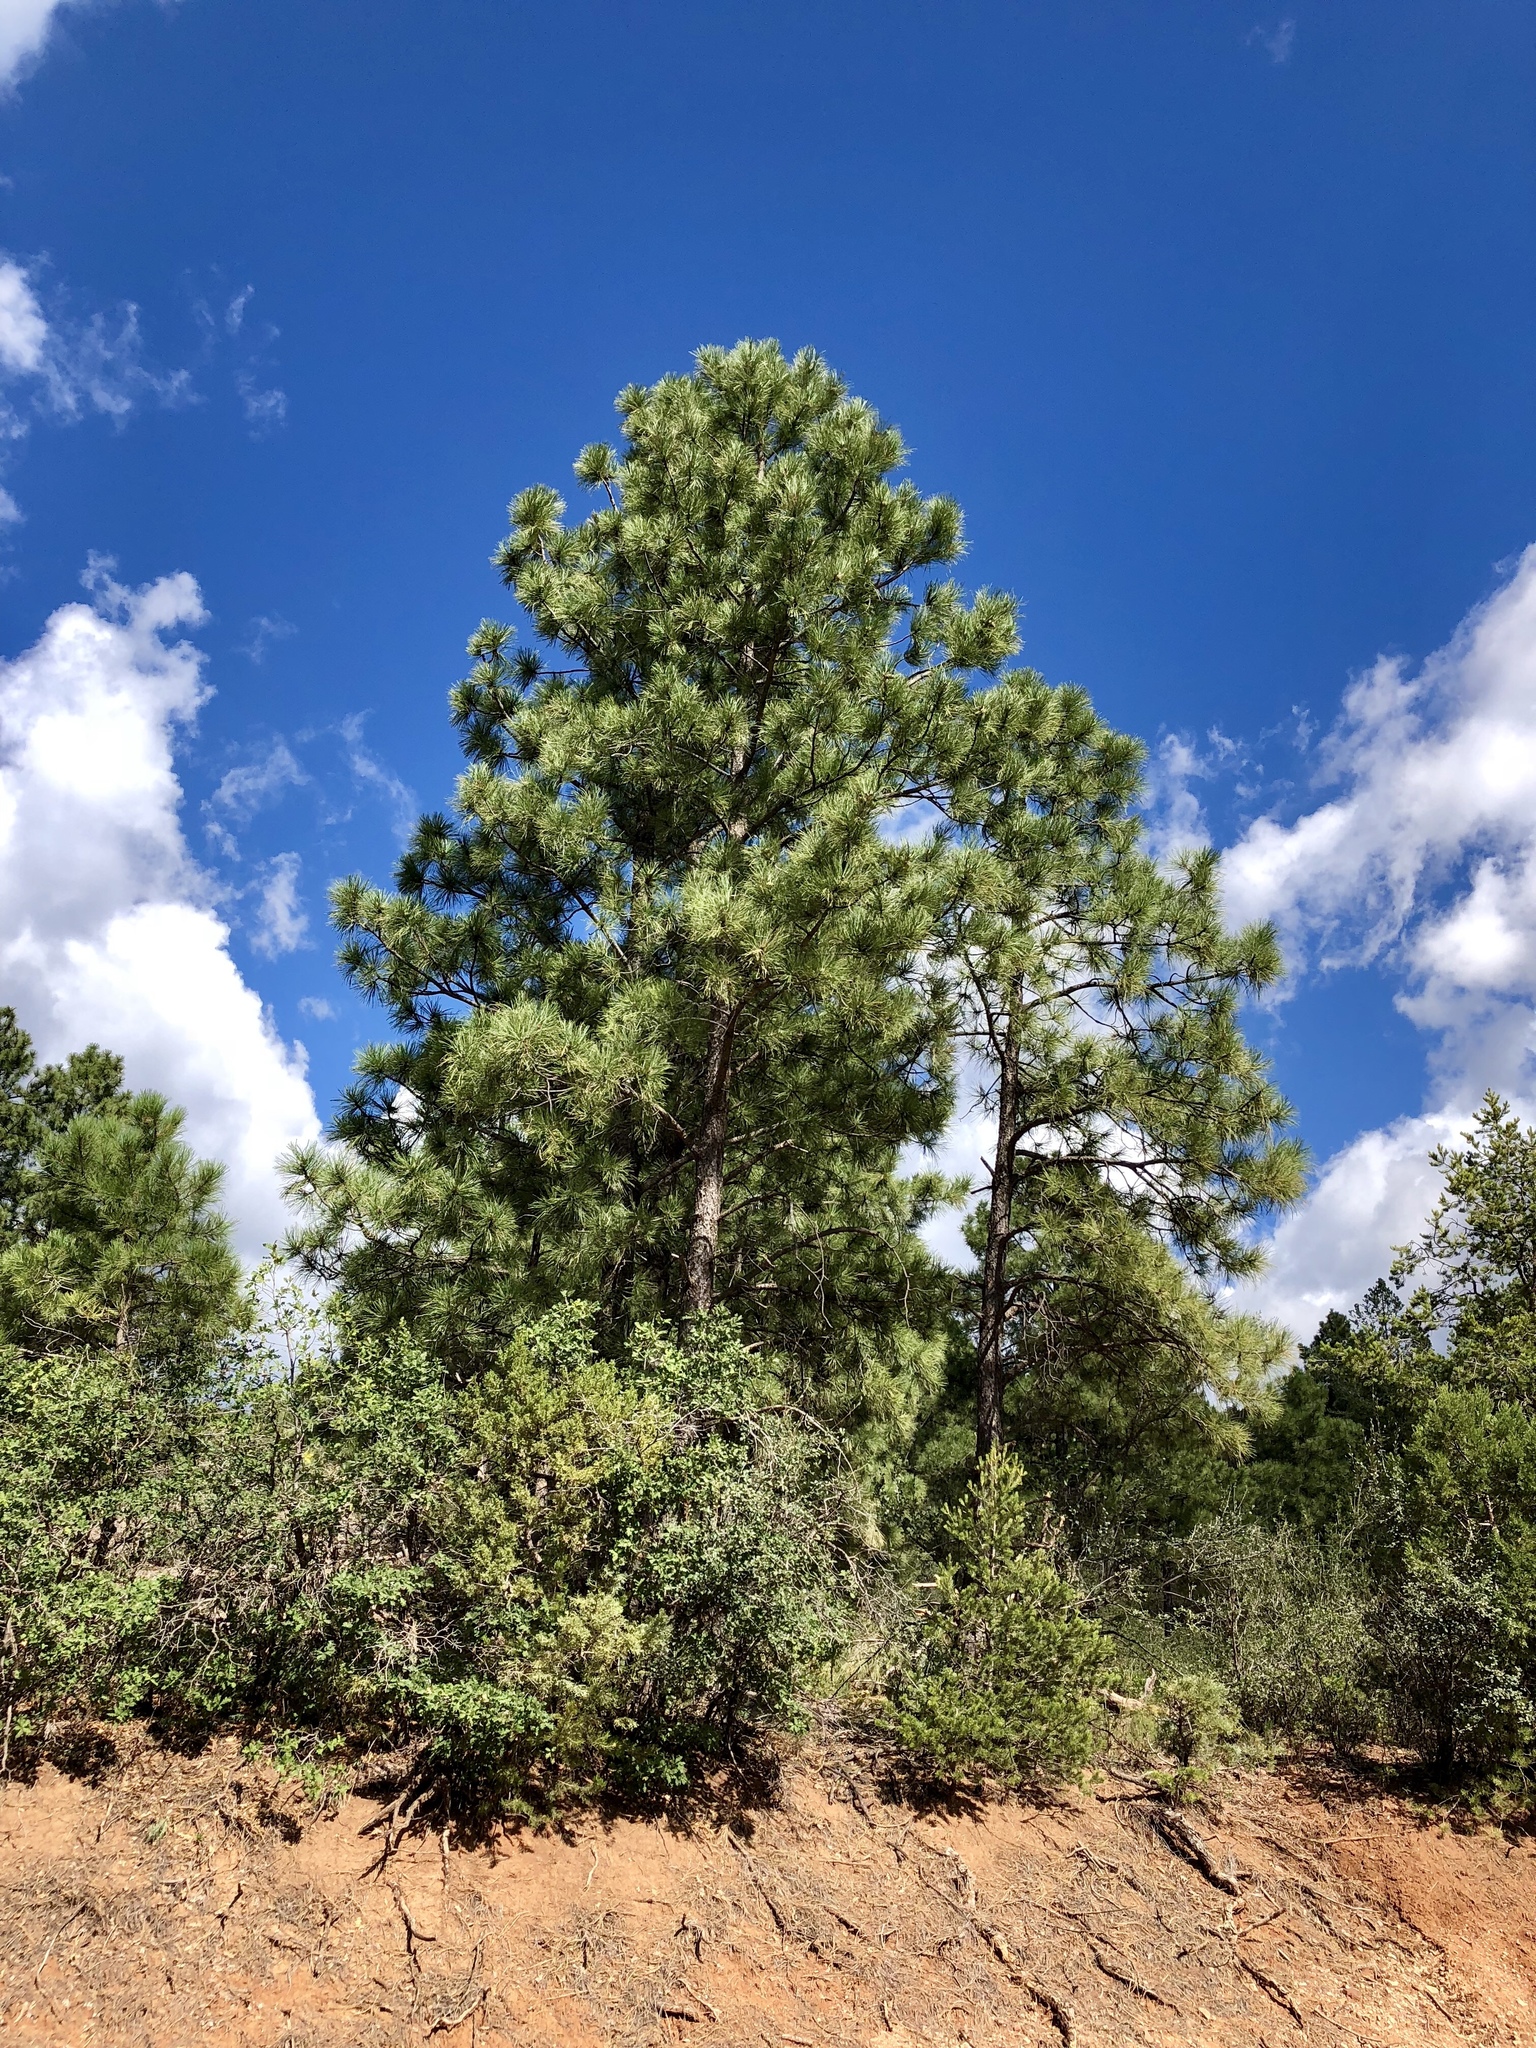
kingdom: Plantae
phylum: Tracheophyta
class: Pinopsida
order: Pinales
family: Pinaceae
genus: Pinus
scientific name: Pinus ponderosa
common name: Western yellow-pine
